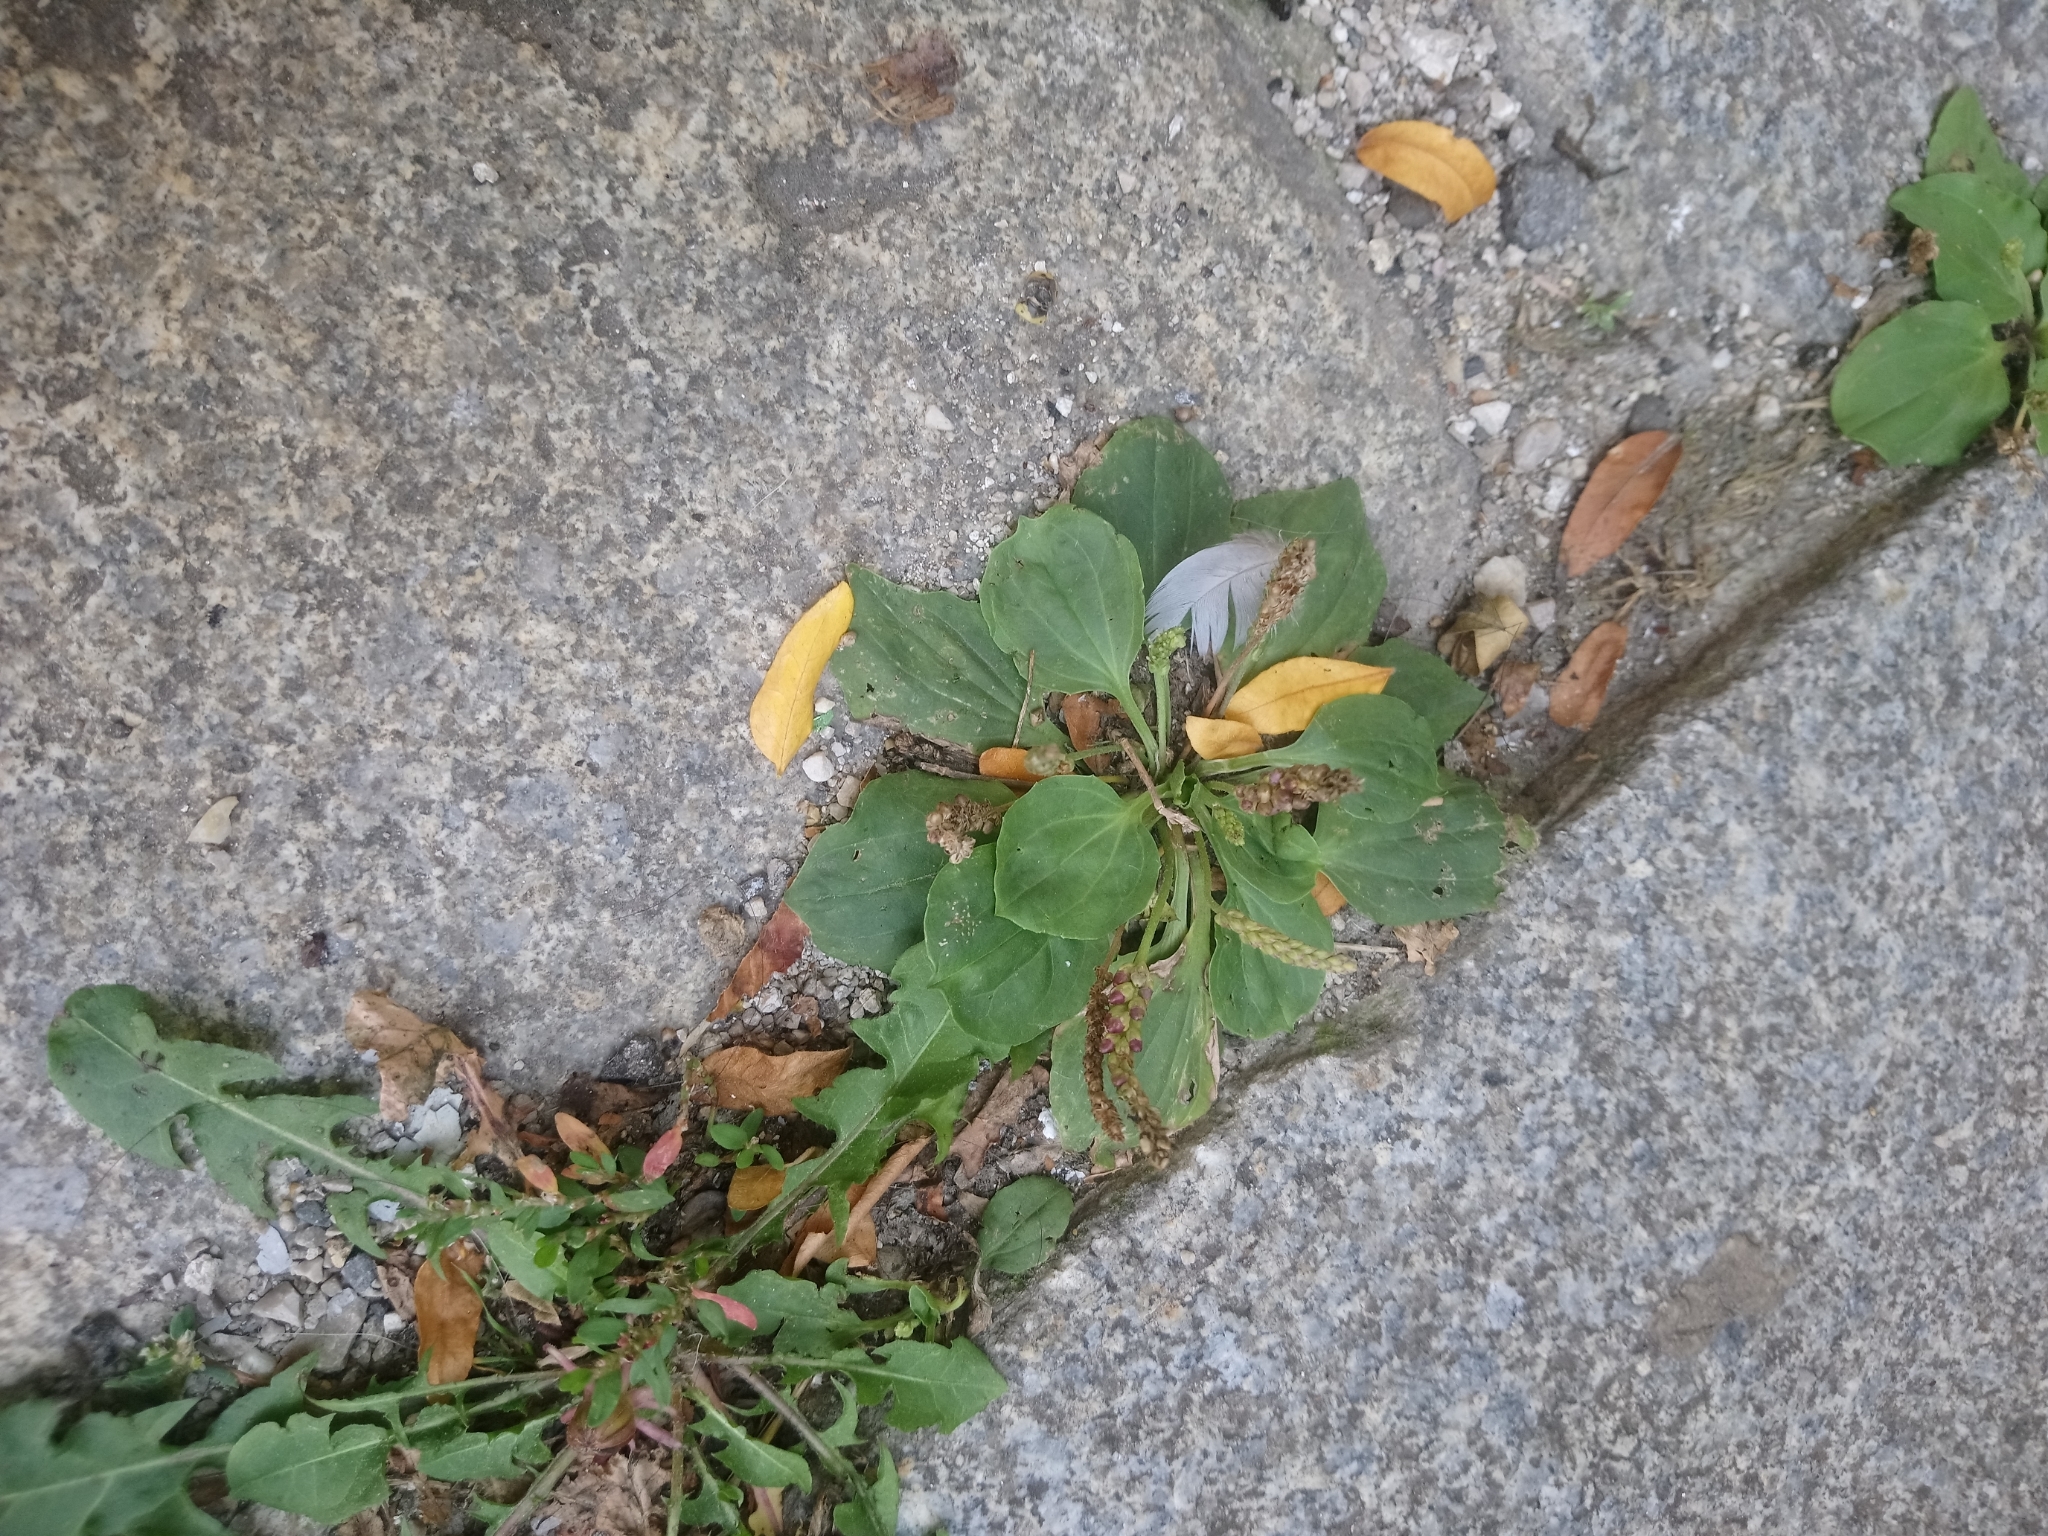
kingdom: Plantae
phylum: Tracheophyta
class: Magnoliopsida
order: Lamiales
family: Plantaginaceae
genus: Plantago
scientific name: Plantago major
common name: Common plantain
